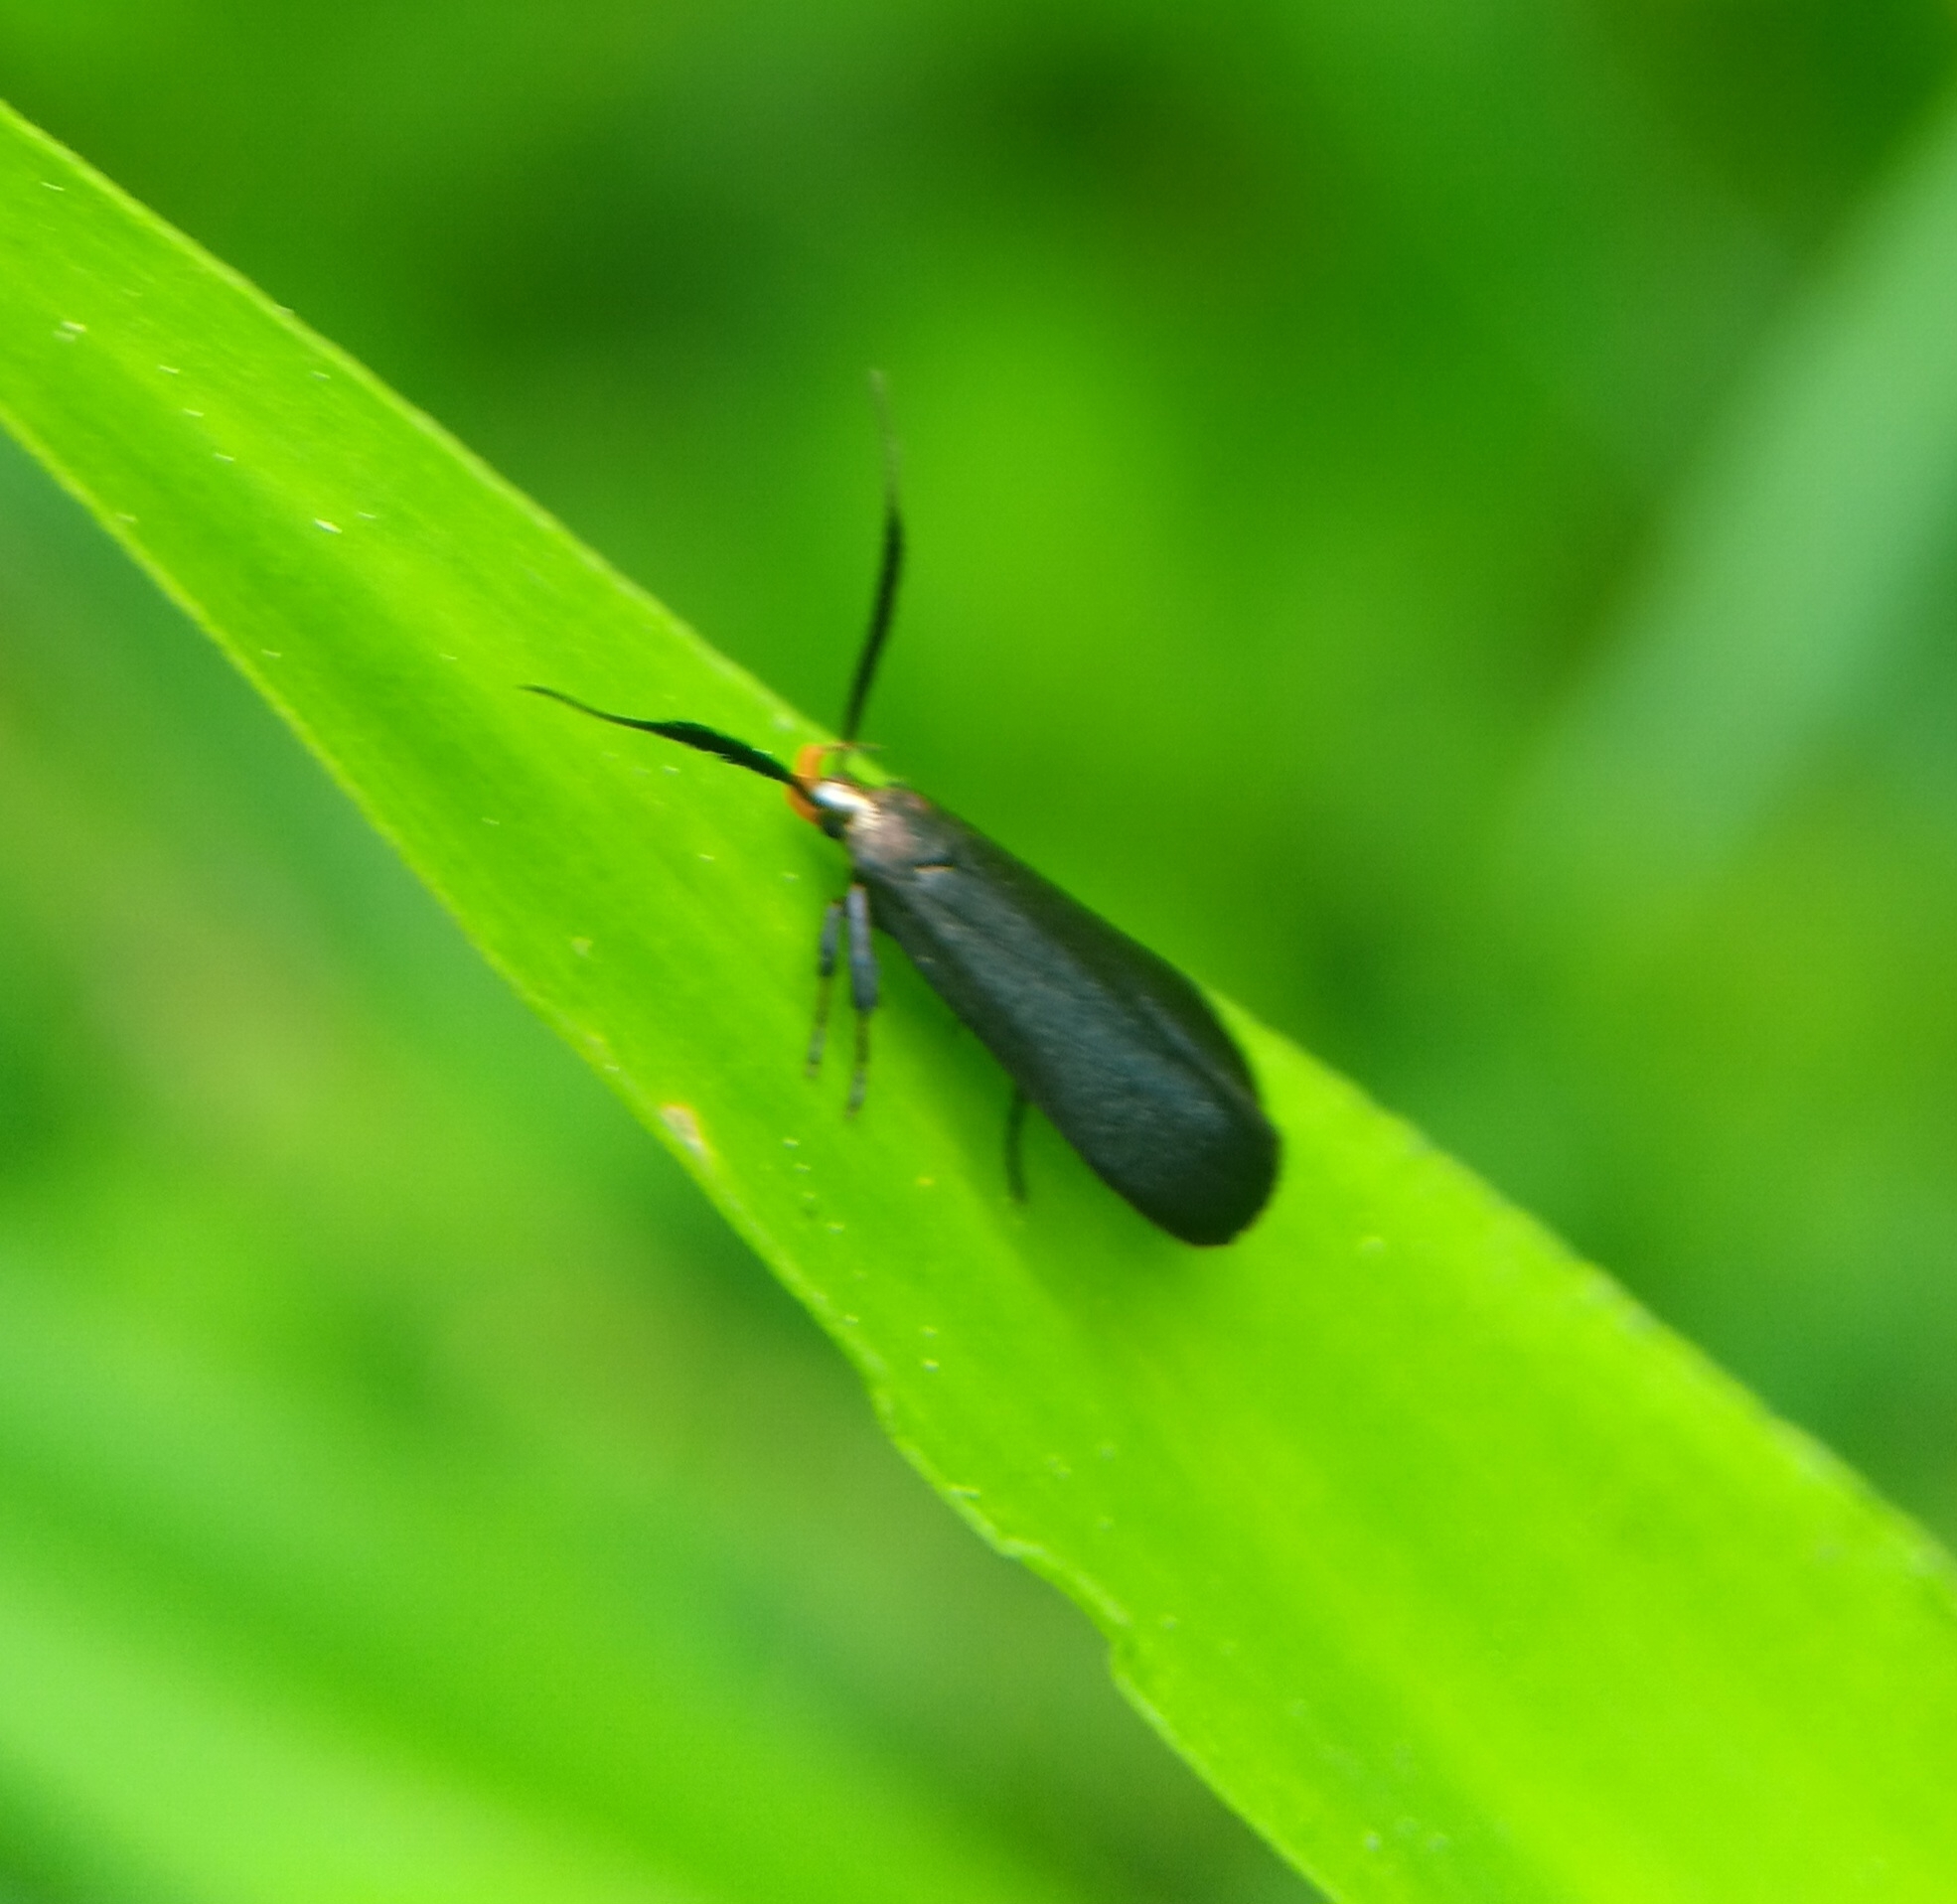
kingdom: Animalia
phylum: Arthropoda
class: Insecta
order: Lepidoptera
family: Gelechiidae
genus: Dichomeris
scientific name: Dichomeris nonstrigella
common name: Little devil moth
